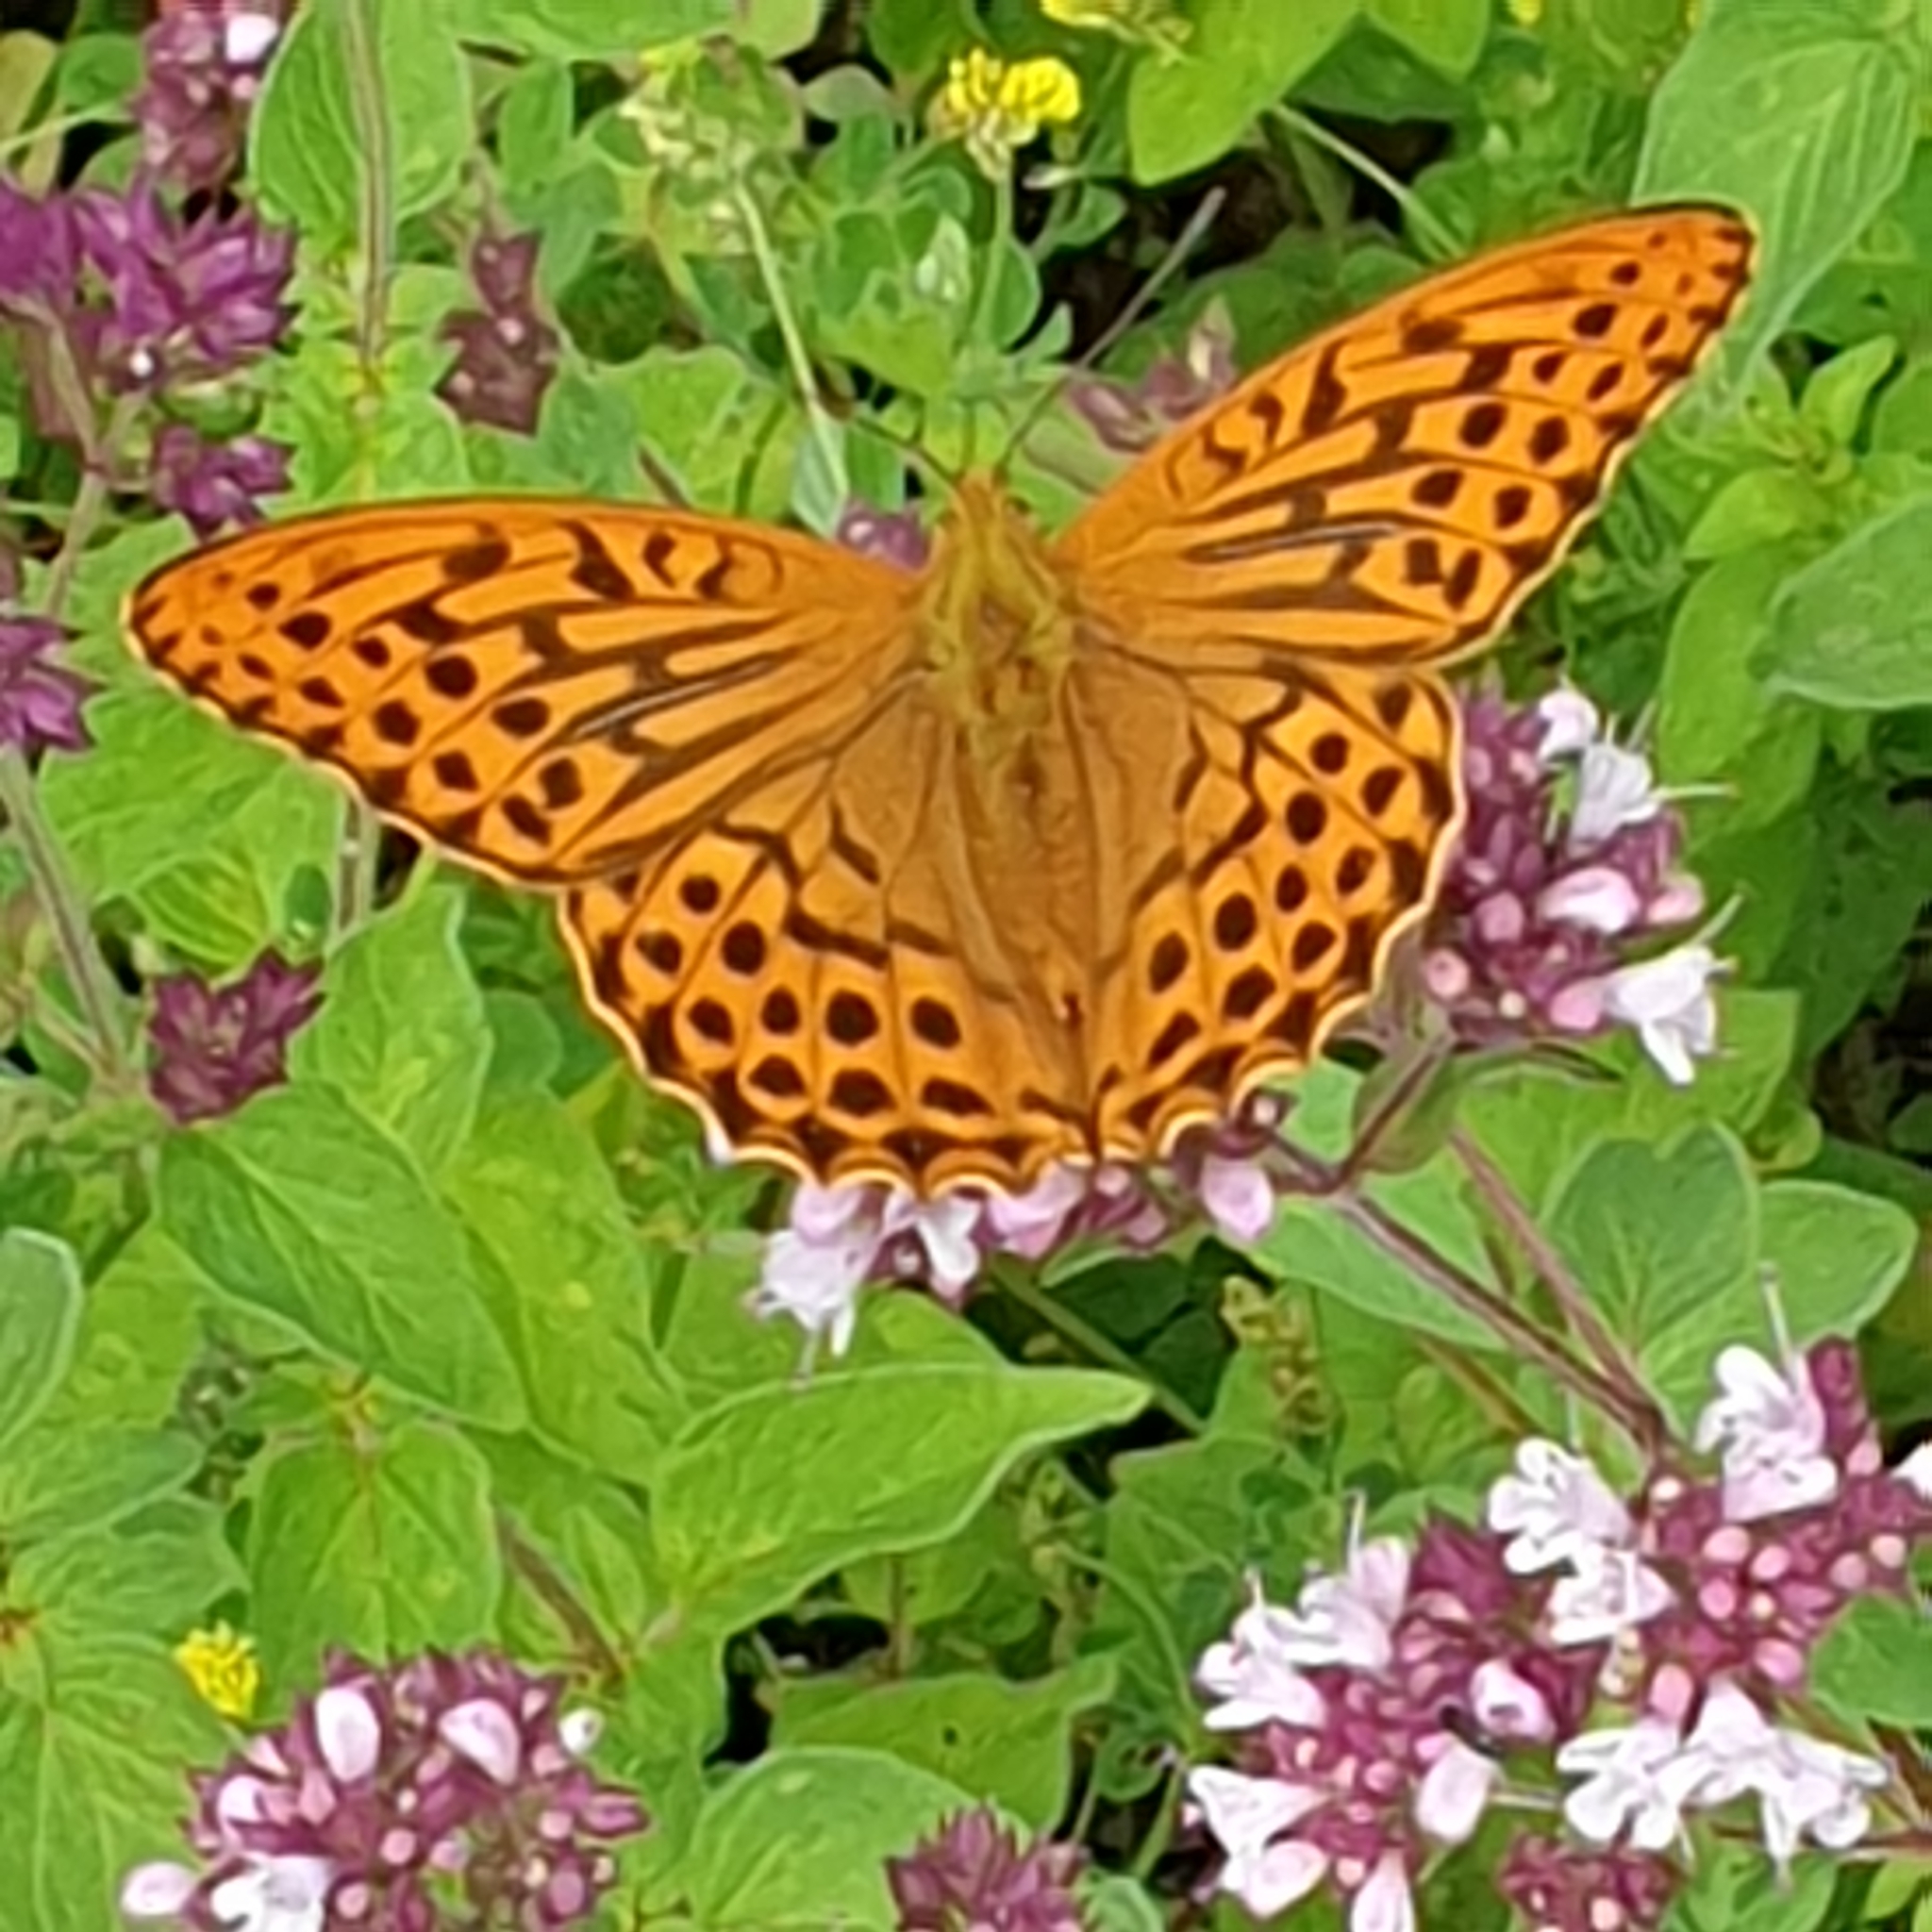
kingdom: Animalia
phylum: Arthropoda
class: Insecta
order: Lepidoptera
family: Nymphalidae
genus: Argynnis
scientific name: Argynnis paphia
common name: Silver-washed fritillary
